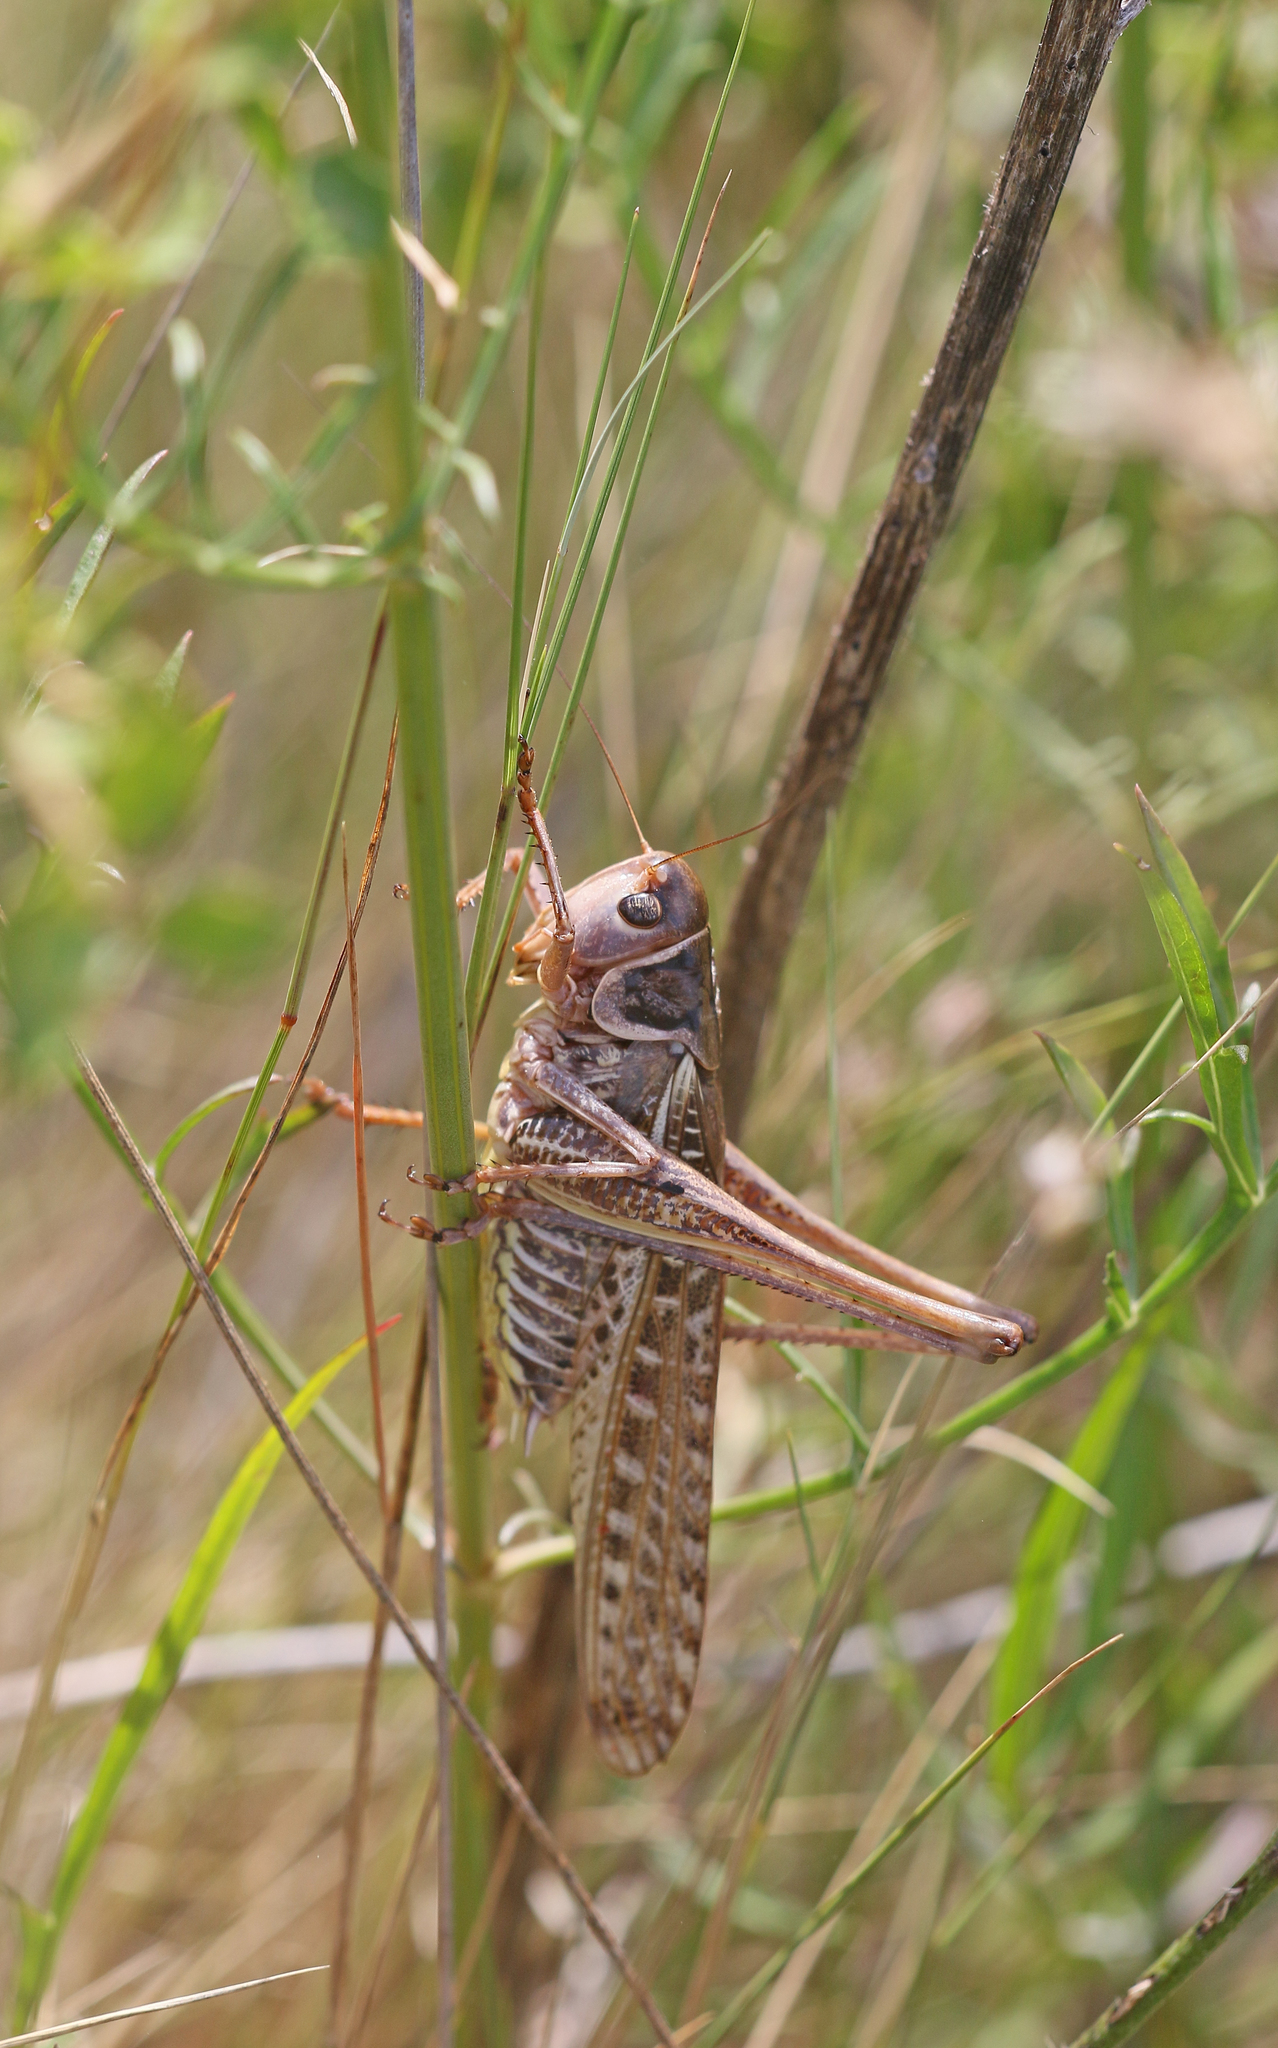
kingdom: Animalia
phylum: Arthropoda
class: Insecta
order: Orthoptera
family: Tettigoniidae
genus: Decticus
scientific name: Decticus albifrons
